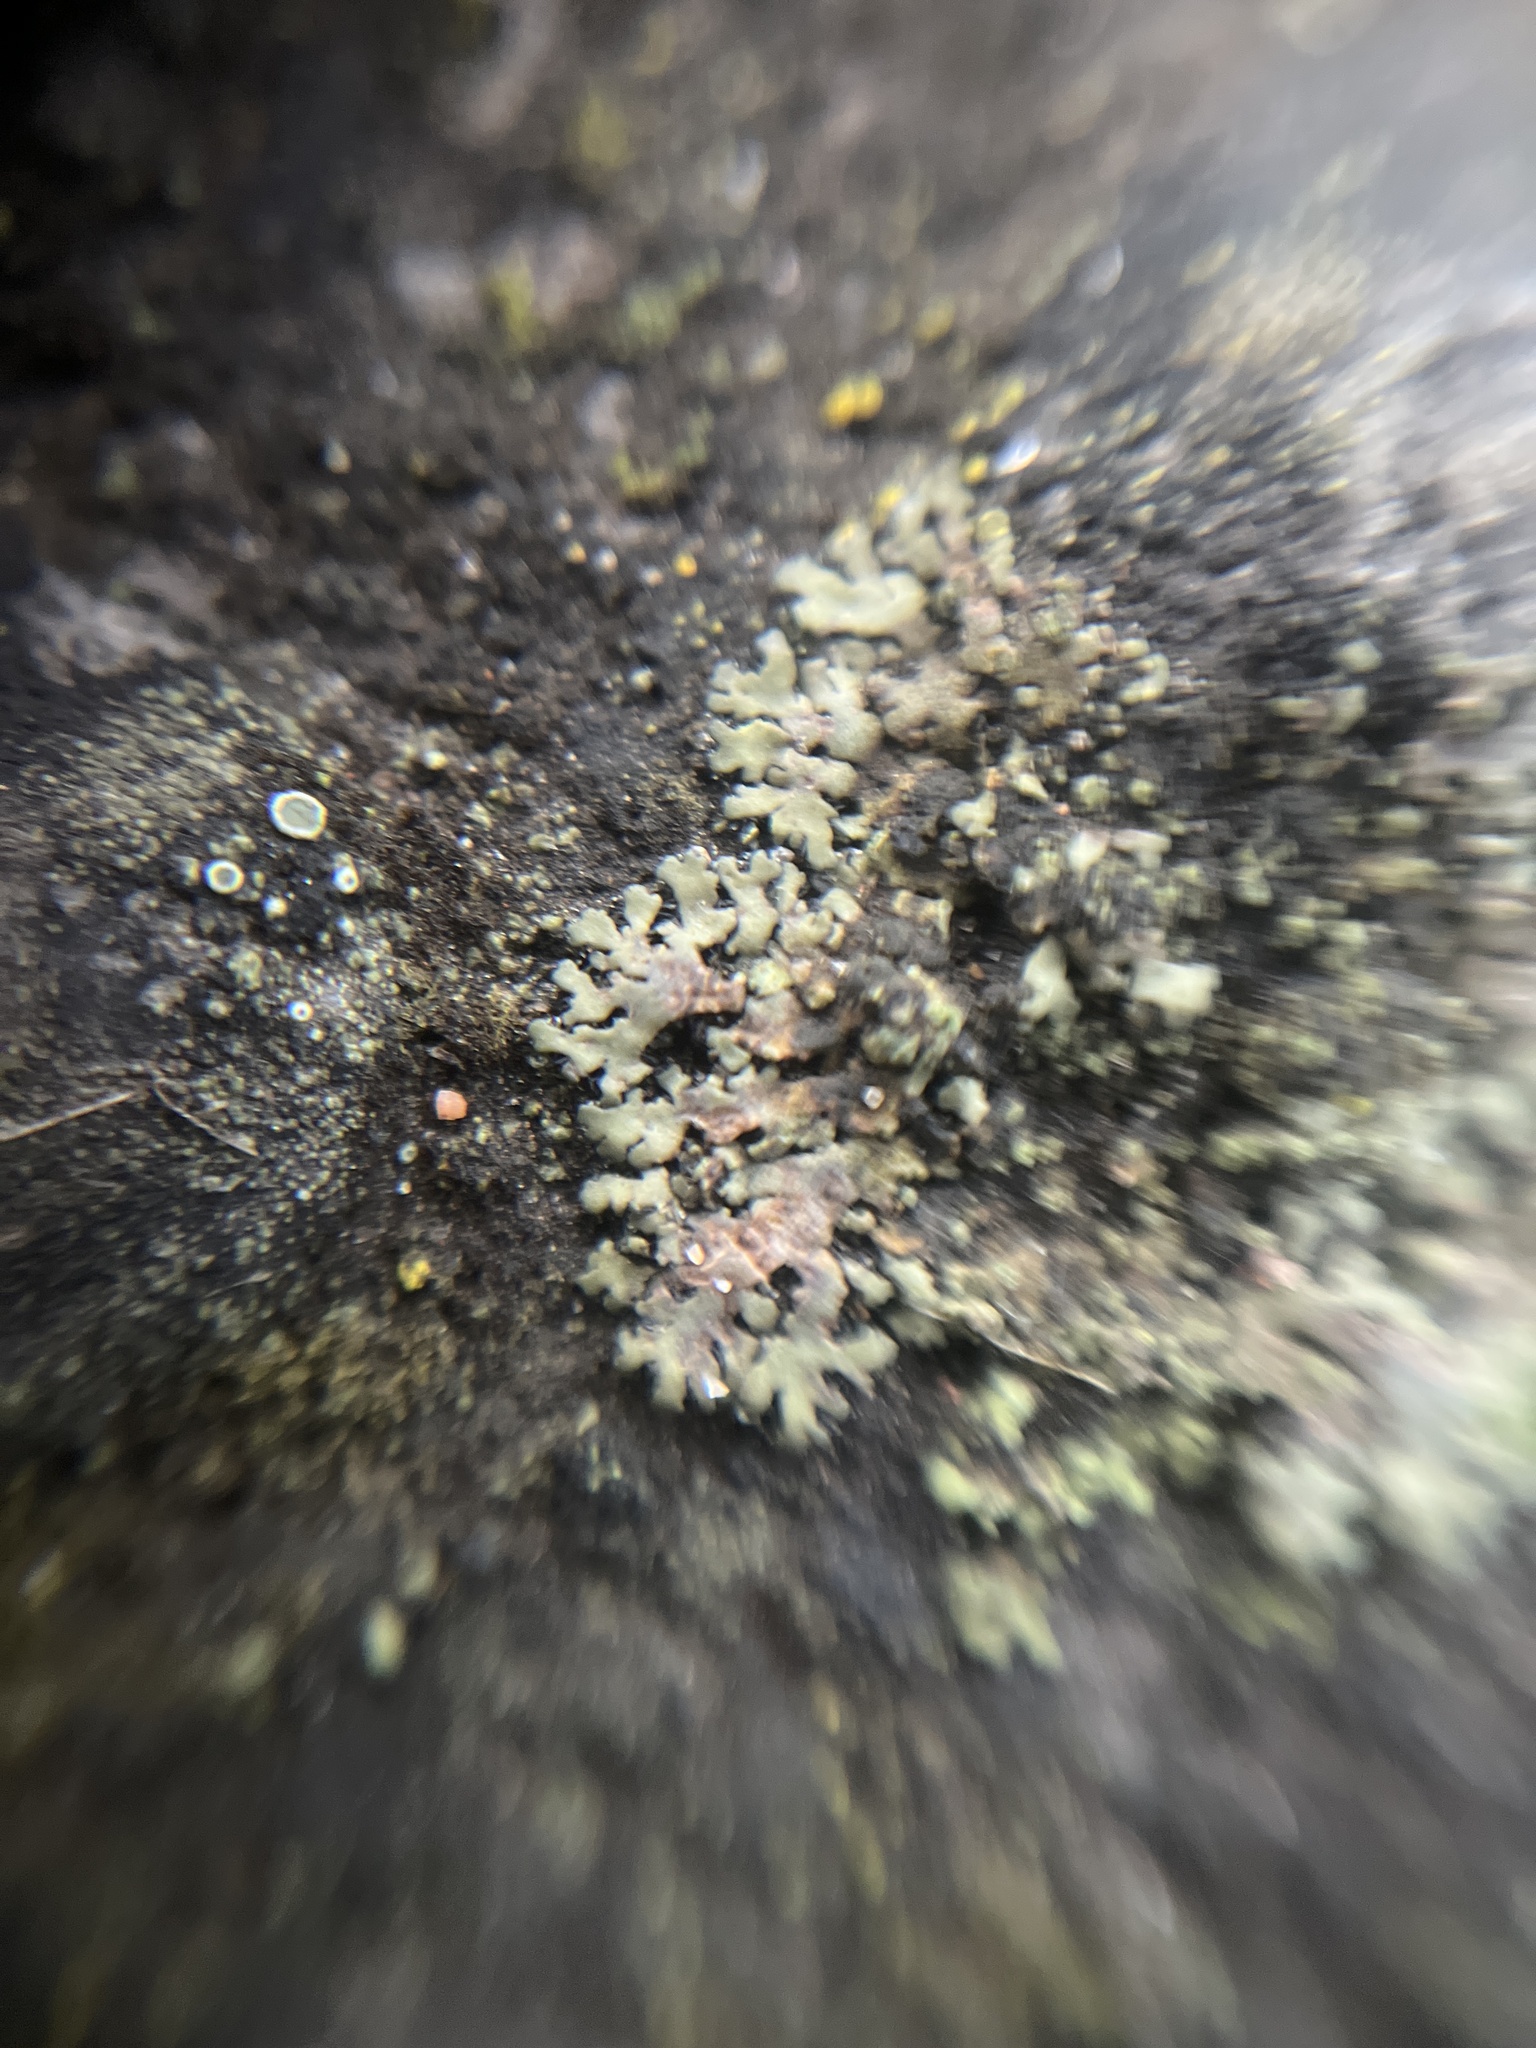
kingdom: Fungi
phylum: Ascomycota
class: Lecanoromycetes
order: Caliciales
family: Physciaceae
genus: Phaeophyscia
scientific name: Phaeophyscia orbicularis
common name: Mealy shadow lichen
